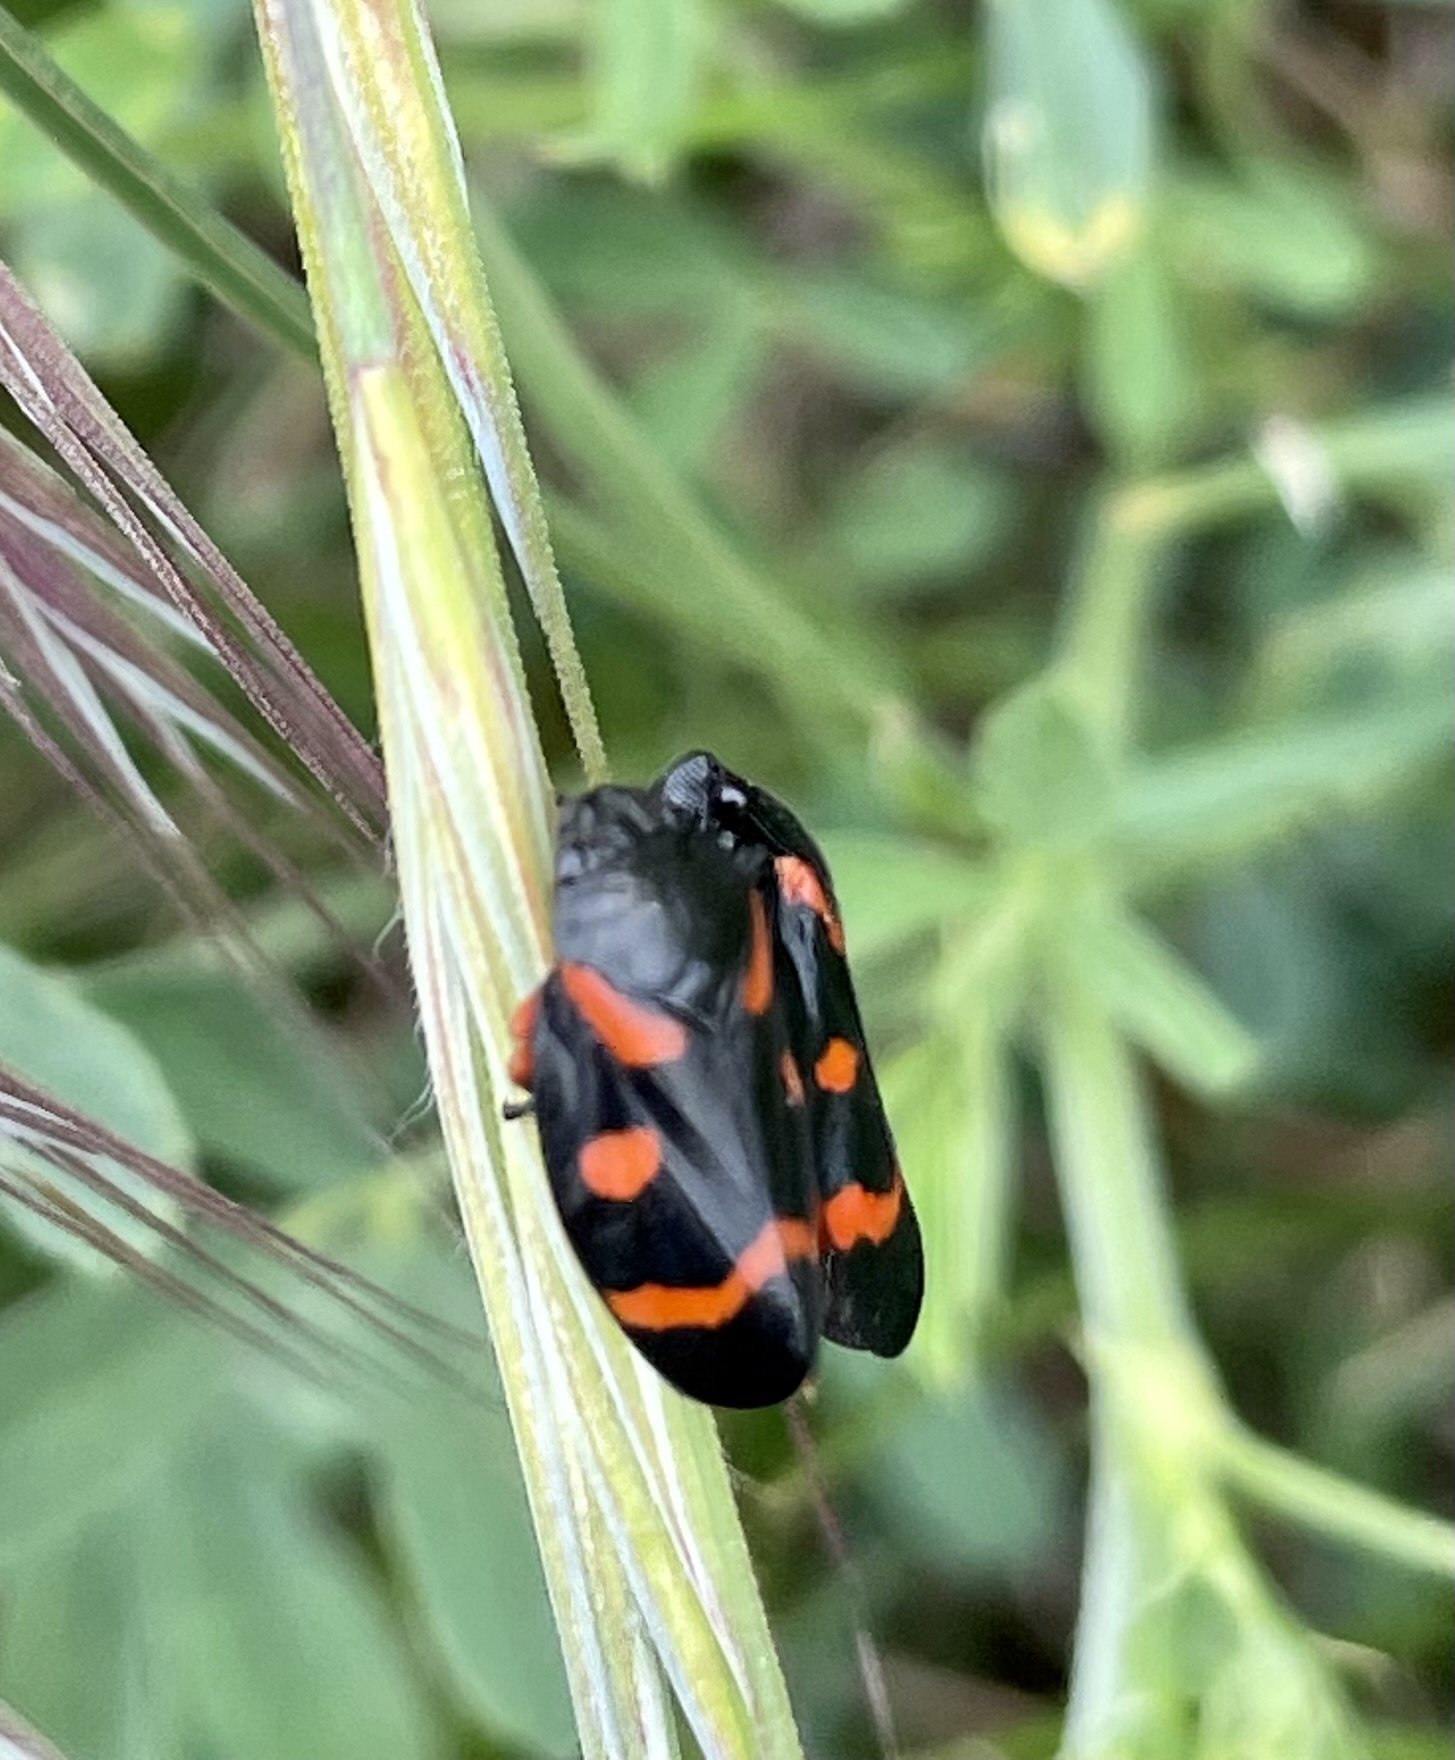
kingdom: Animalia
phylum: Arthropoda
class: Insecta
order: Hemiptera
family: Cercopidae
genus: Cercopis
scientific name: Cercopis intermedia
